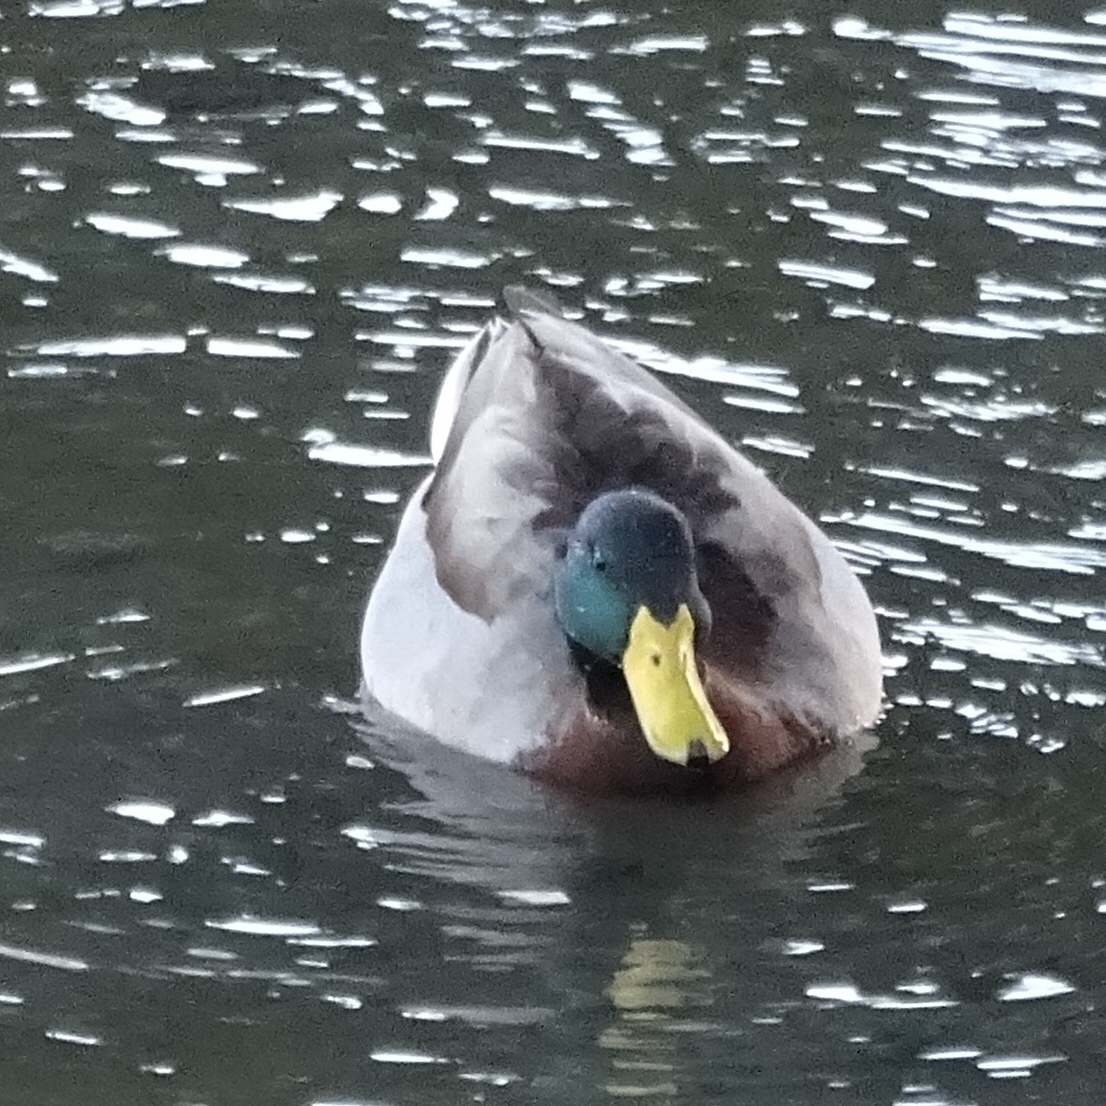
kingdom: Animalia
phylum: Chordata
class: Aves
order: Anseriformes
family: Anatidae
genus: Anas
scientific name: Anas platyrhynchos
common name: Mallard
